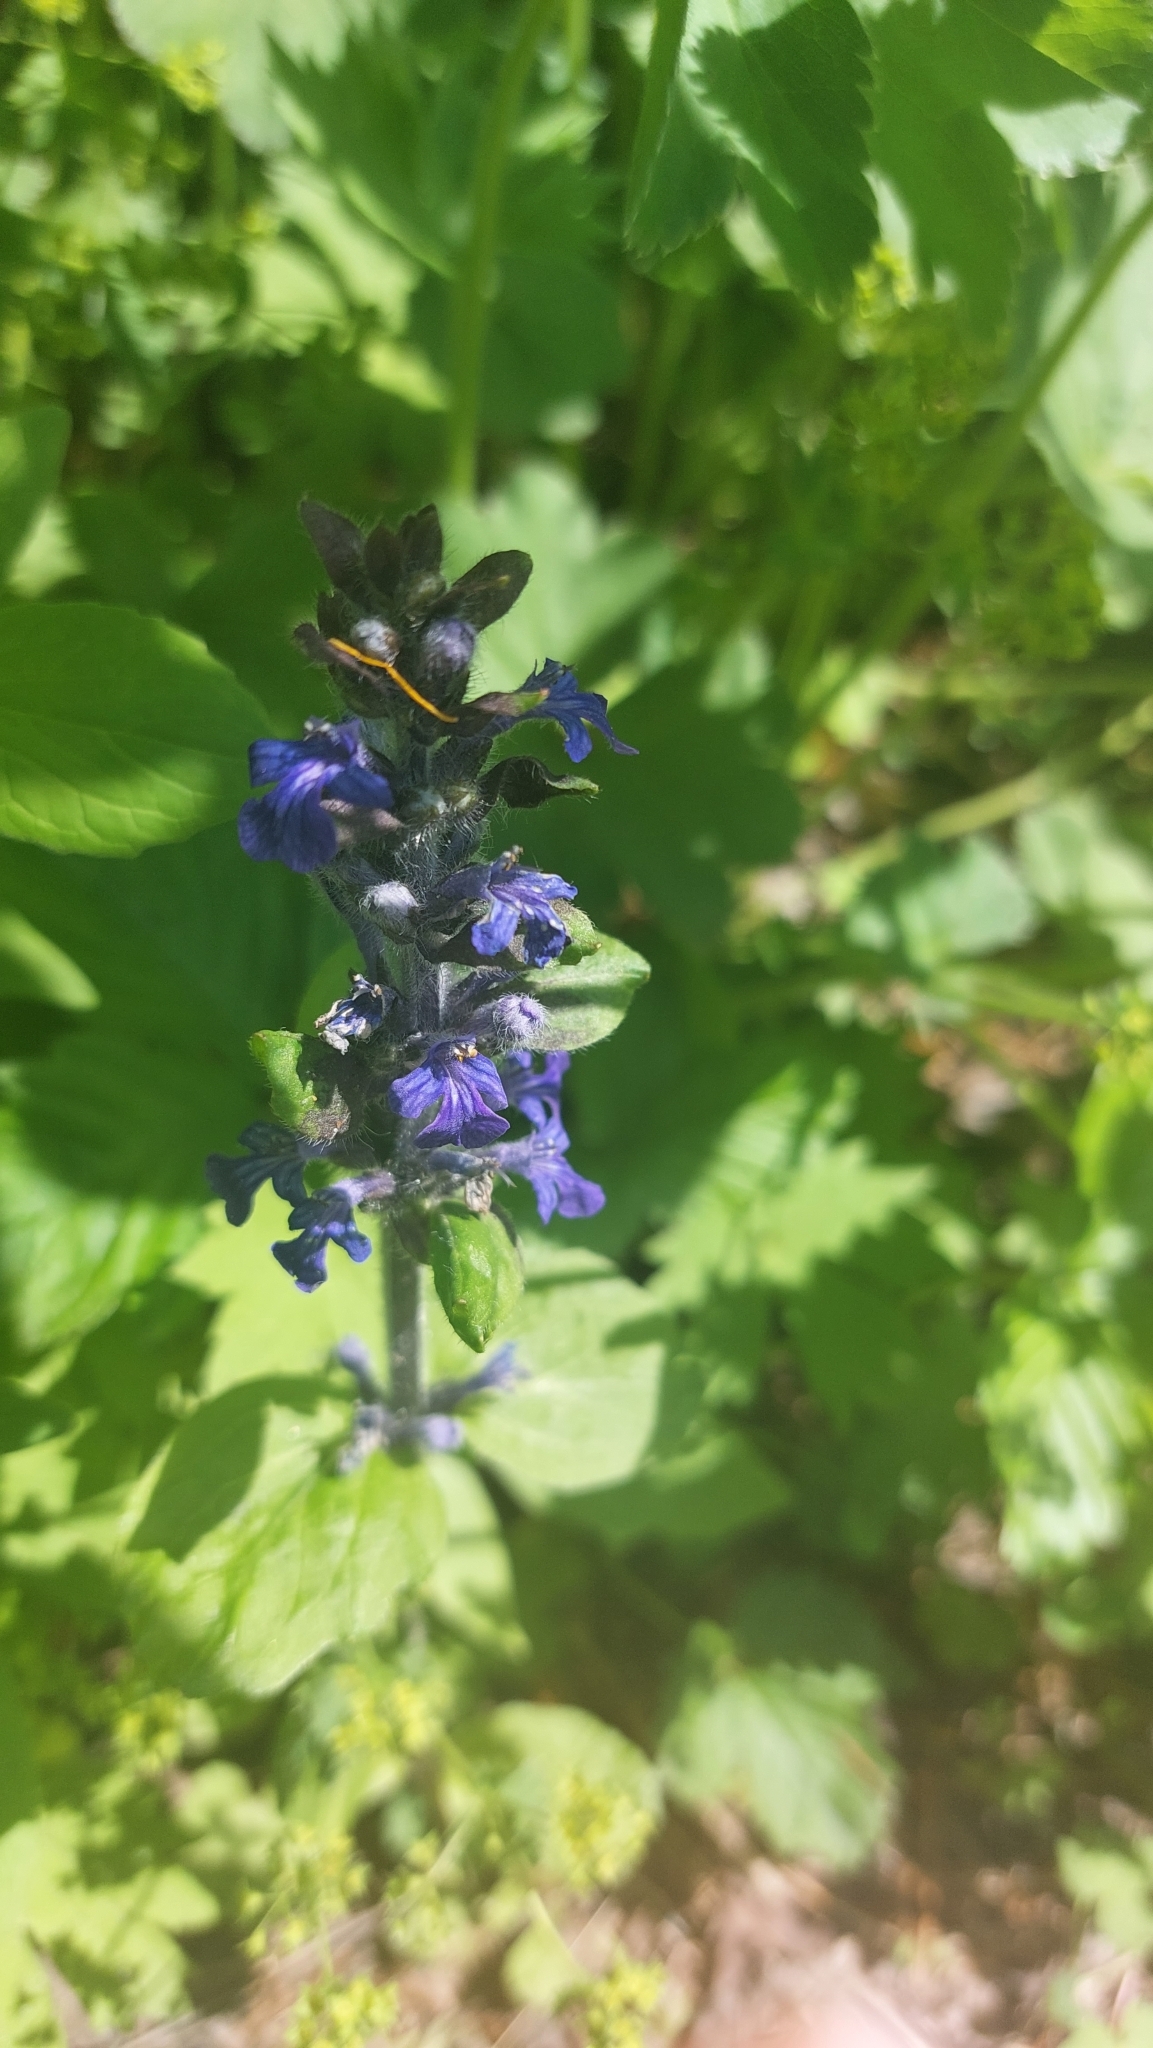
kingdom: Plantae
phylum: Tracheophyta
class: Magnoliopsida
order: Lamiales
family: Lamiaceae
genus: Ajuga
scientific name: Ajuga reptans
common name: Bugle
